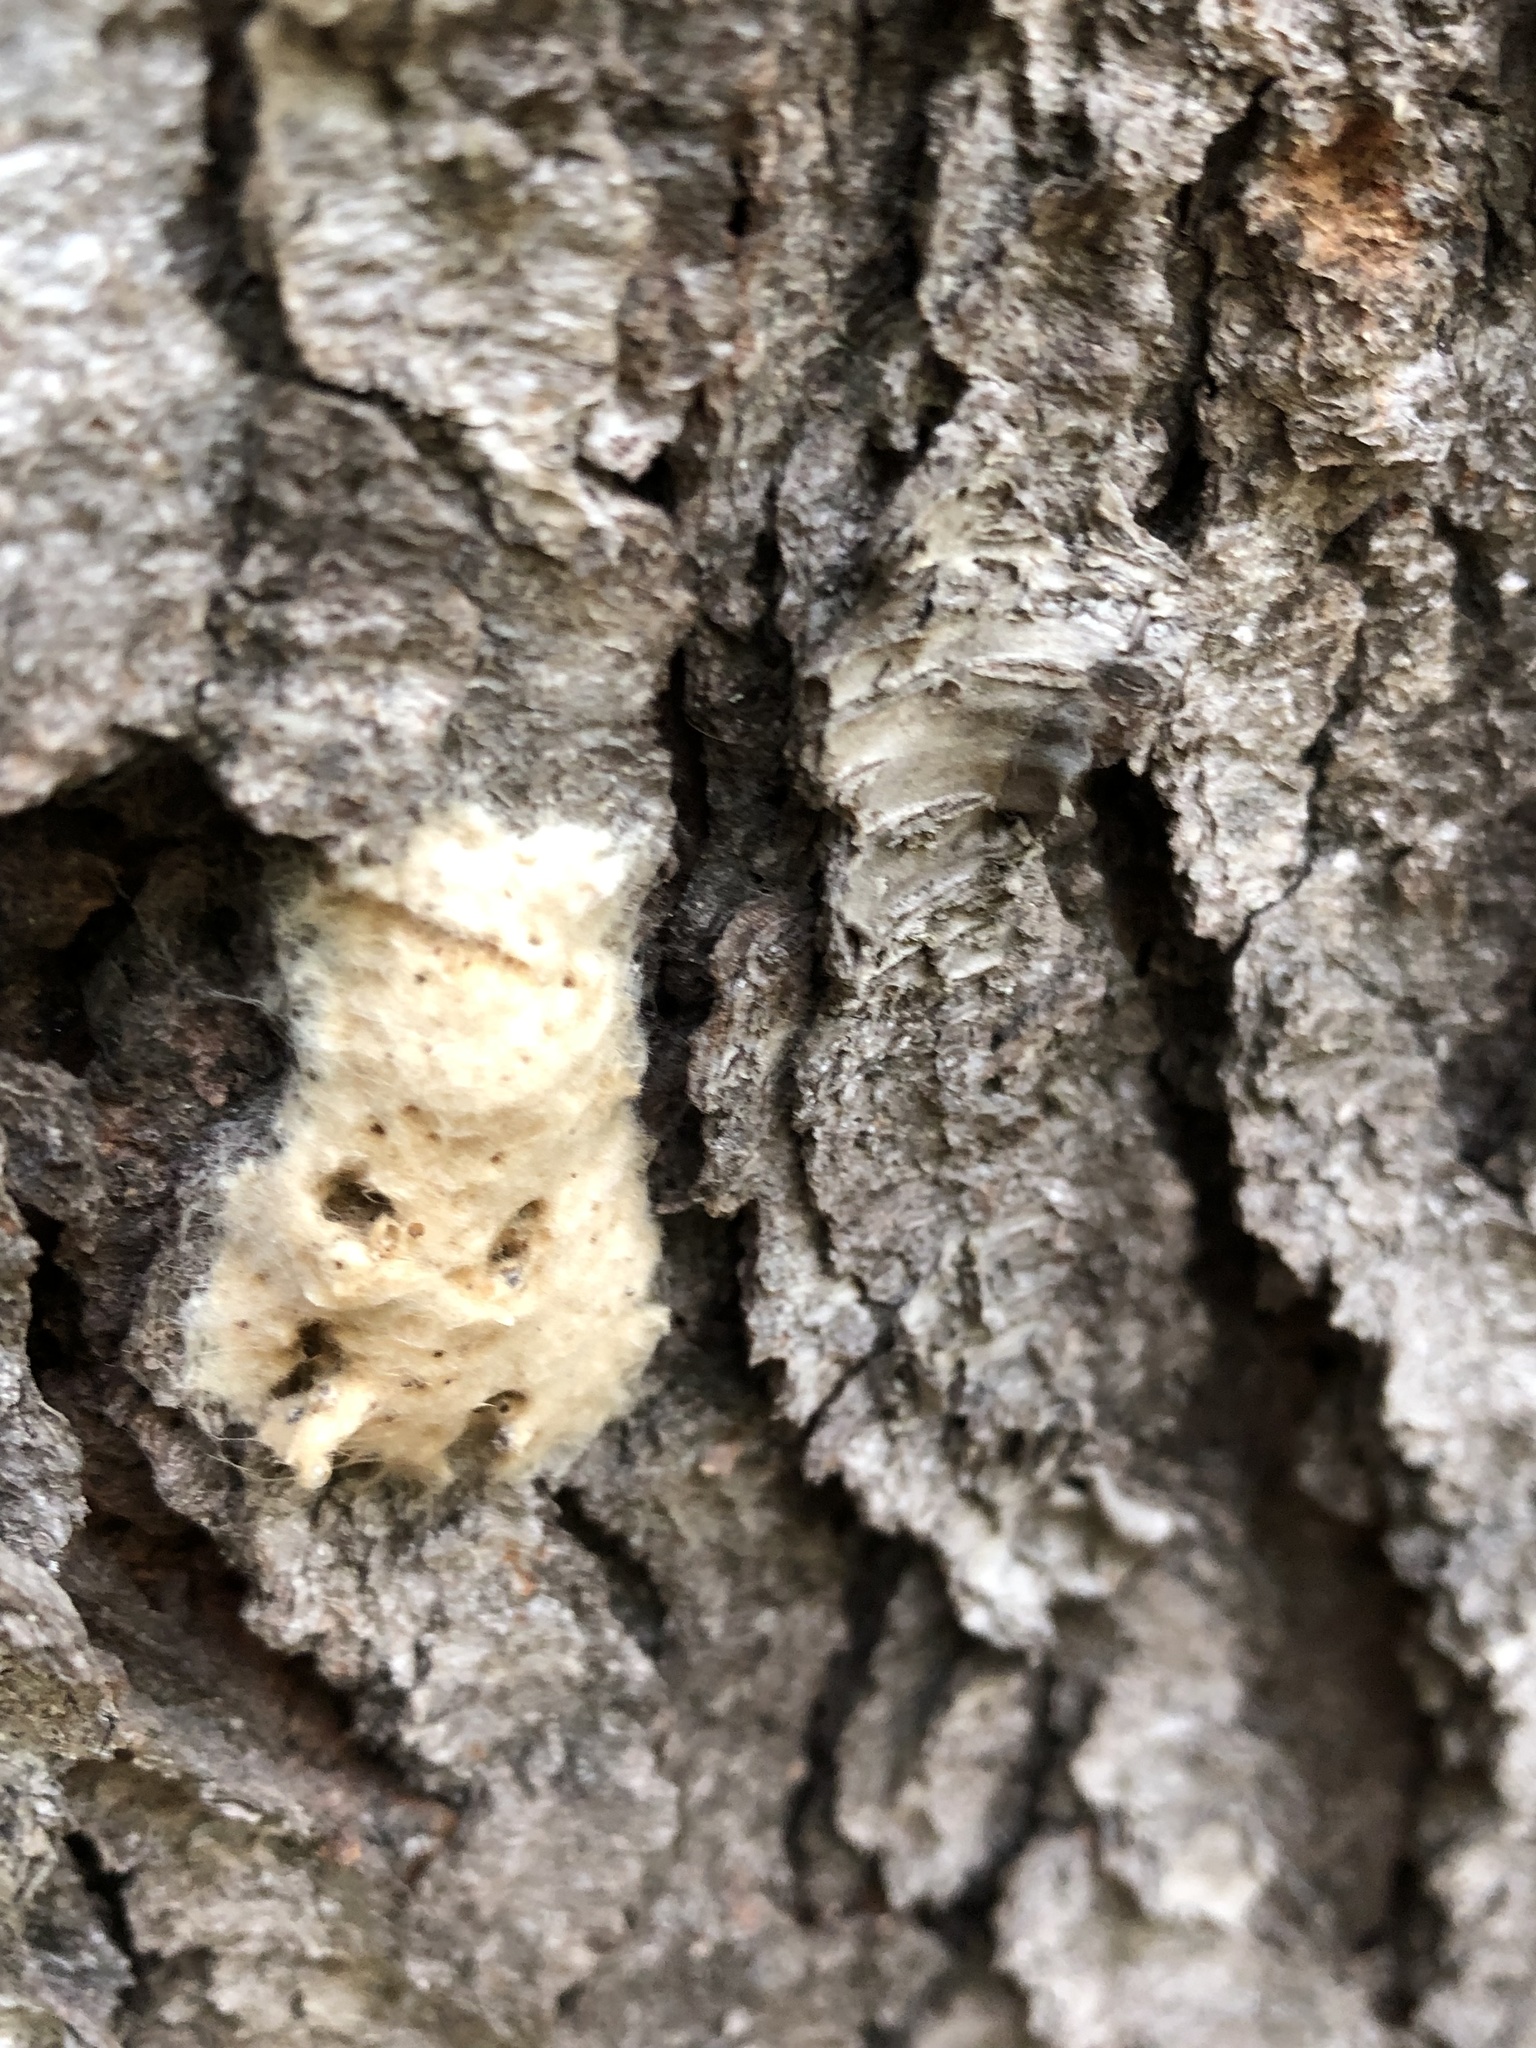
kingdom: Animalia
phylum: Arthropoda
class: Insecta
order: Lepidoptera
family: Erebidae
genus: Lymantria
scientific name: Lymantria dispar
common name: Gypsy moth
